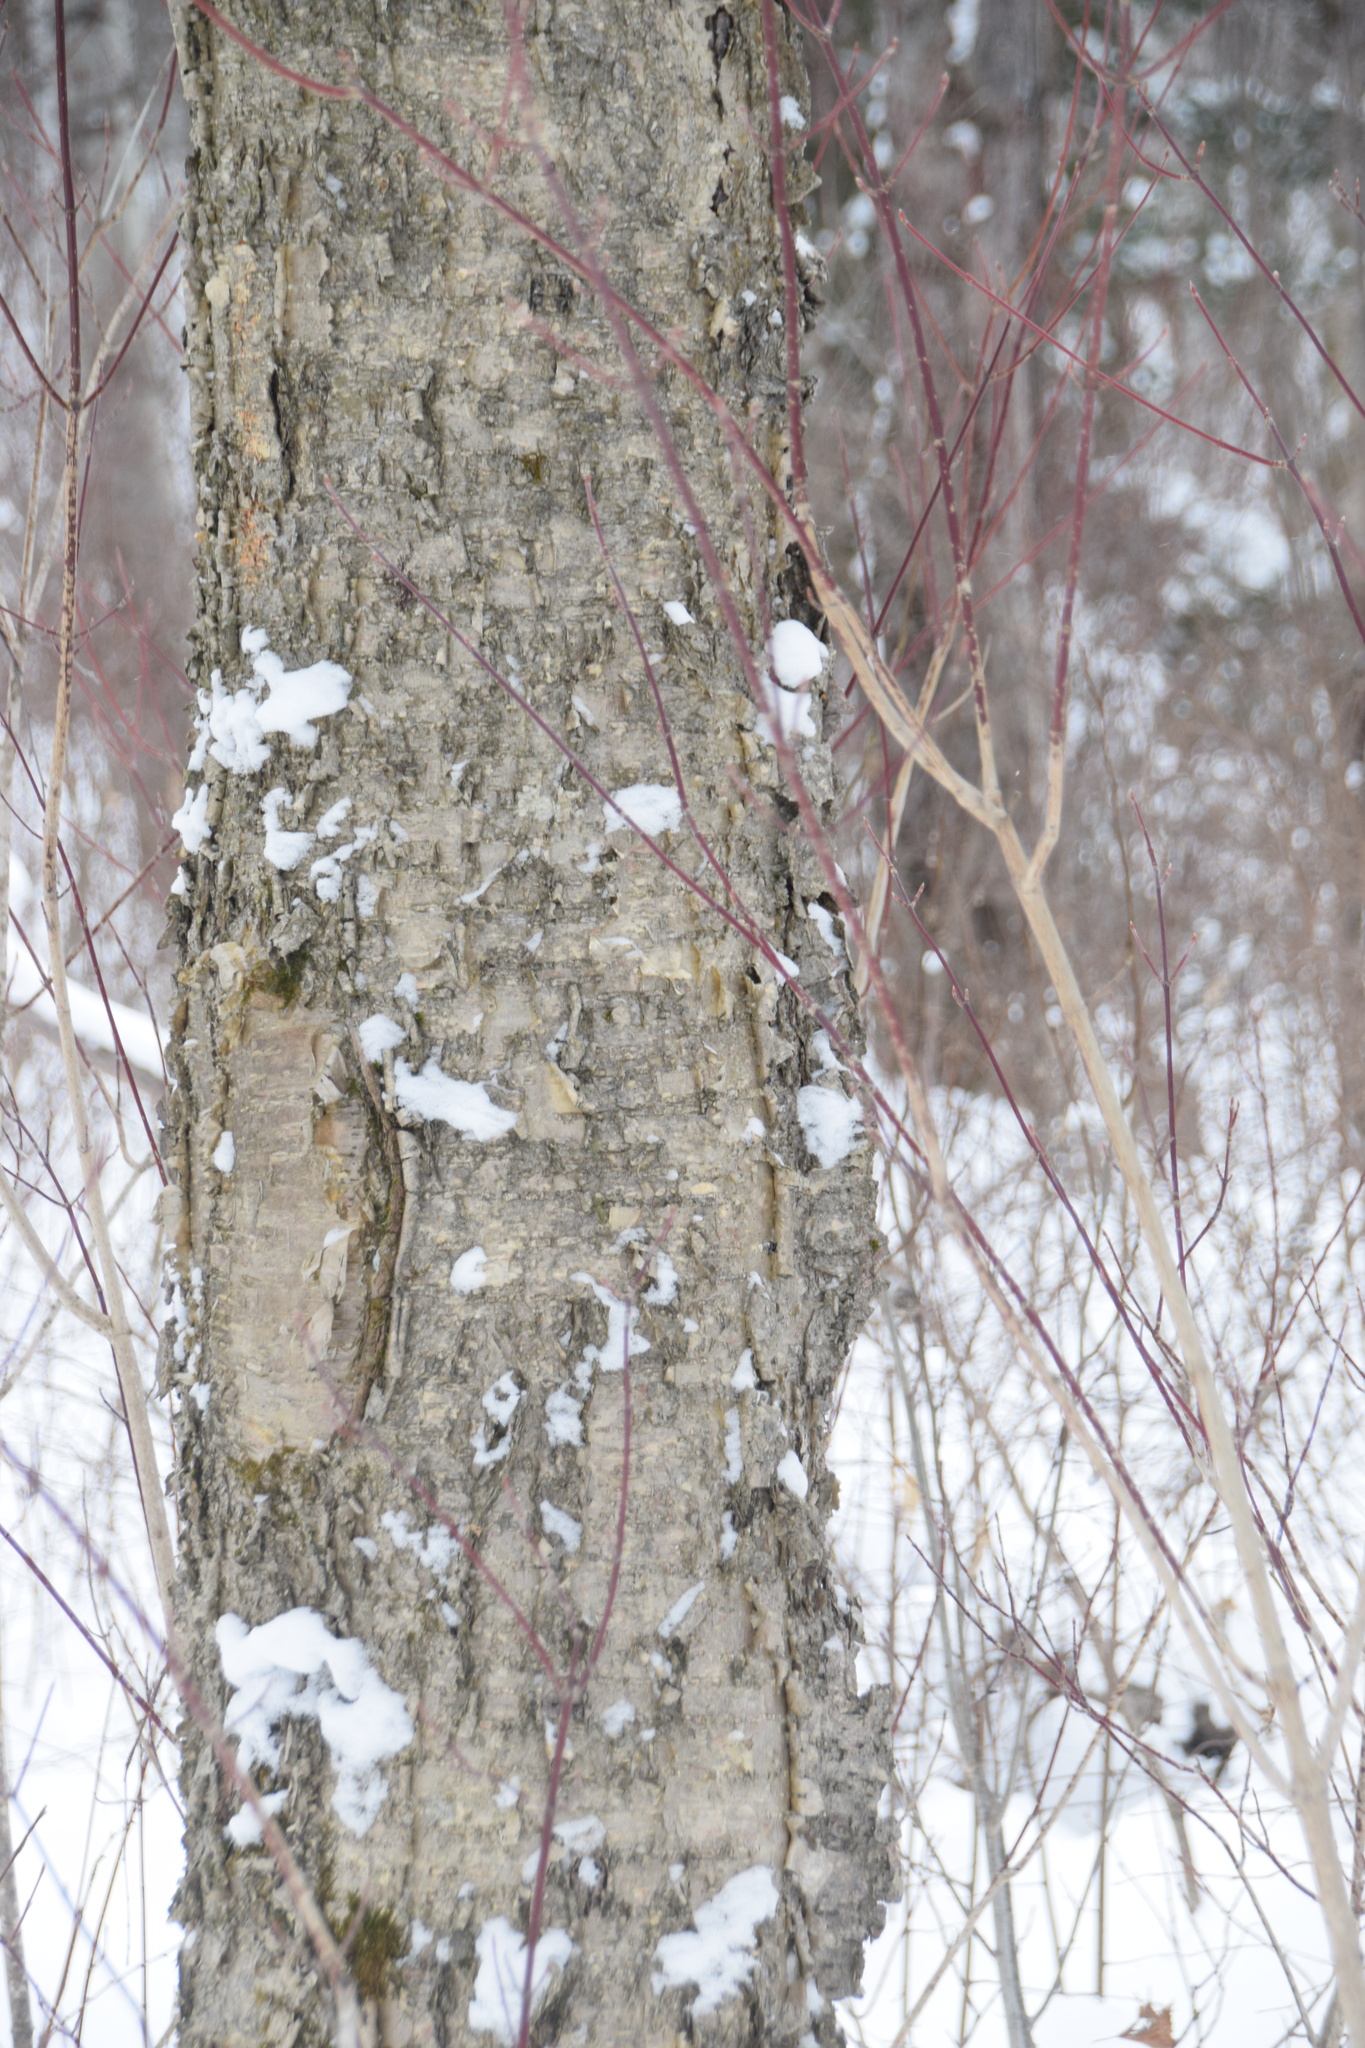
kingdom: Plantae
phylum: Tracheophyta
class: Magnoliopsida
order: Fagales
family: Betulaceae
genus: Betula
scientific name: Betula alleghaniensis
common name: Yellow birch
